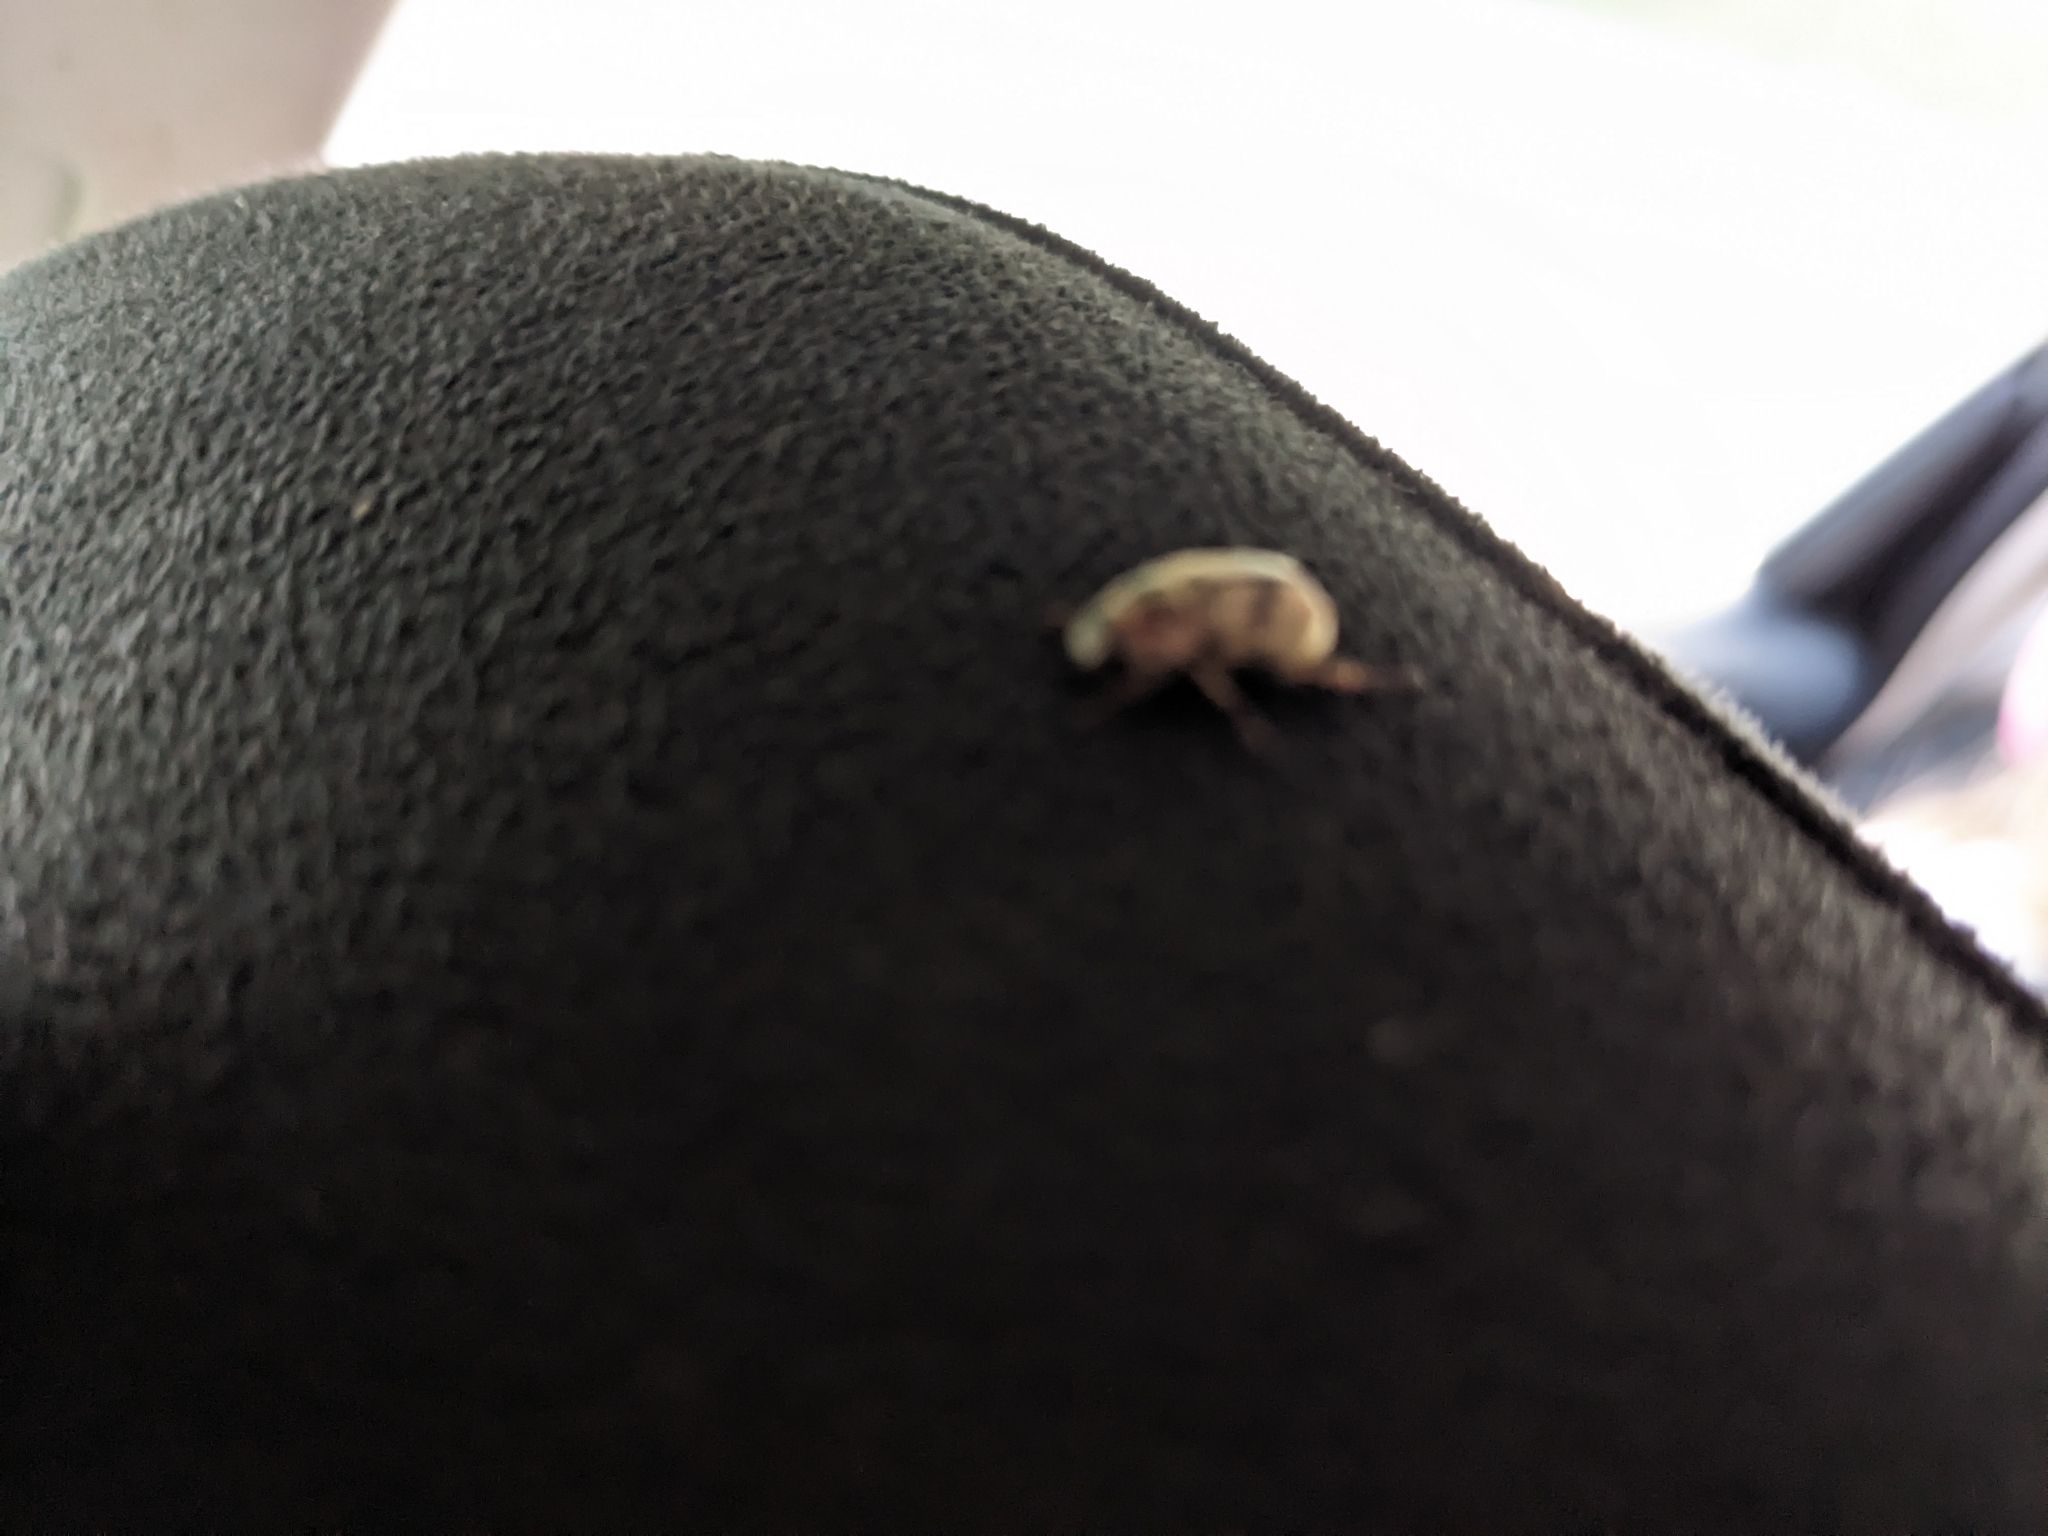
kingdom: Animalia
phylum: Arthropoda
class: Insecta
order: Coleoptera
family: Scarabaeidae
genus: Exomala
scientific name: Exomala orientalis
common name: Oriental beetle
